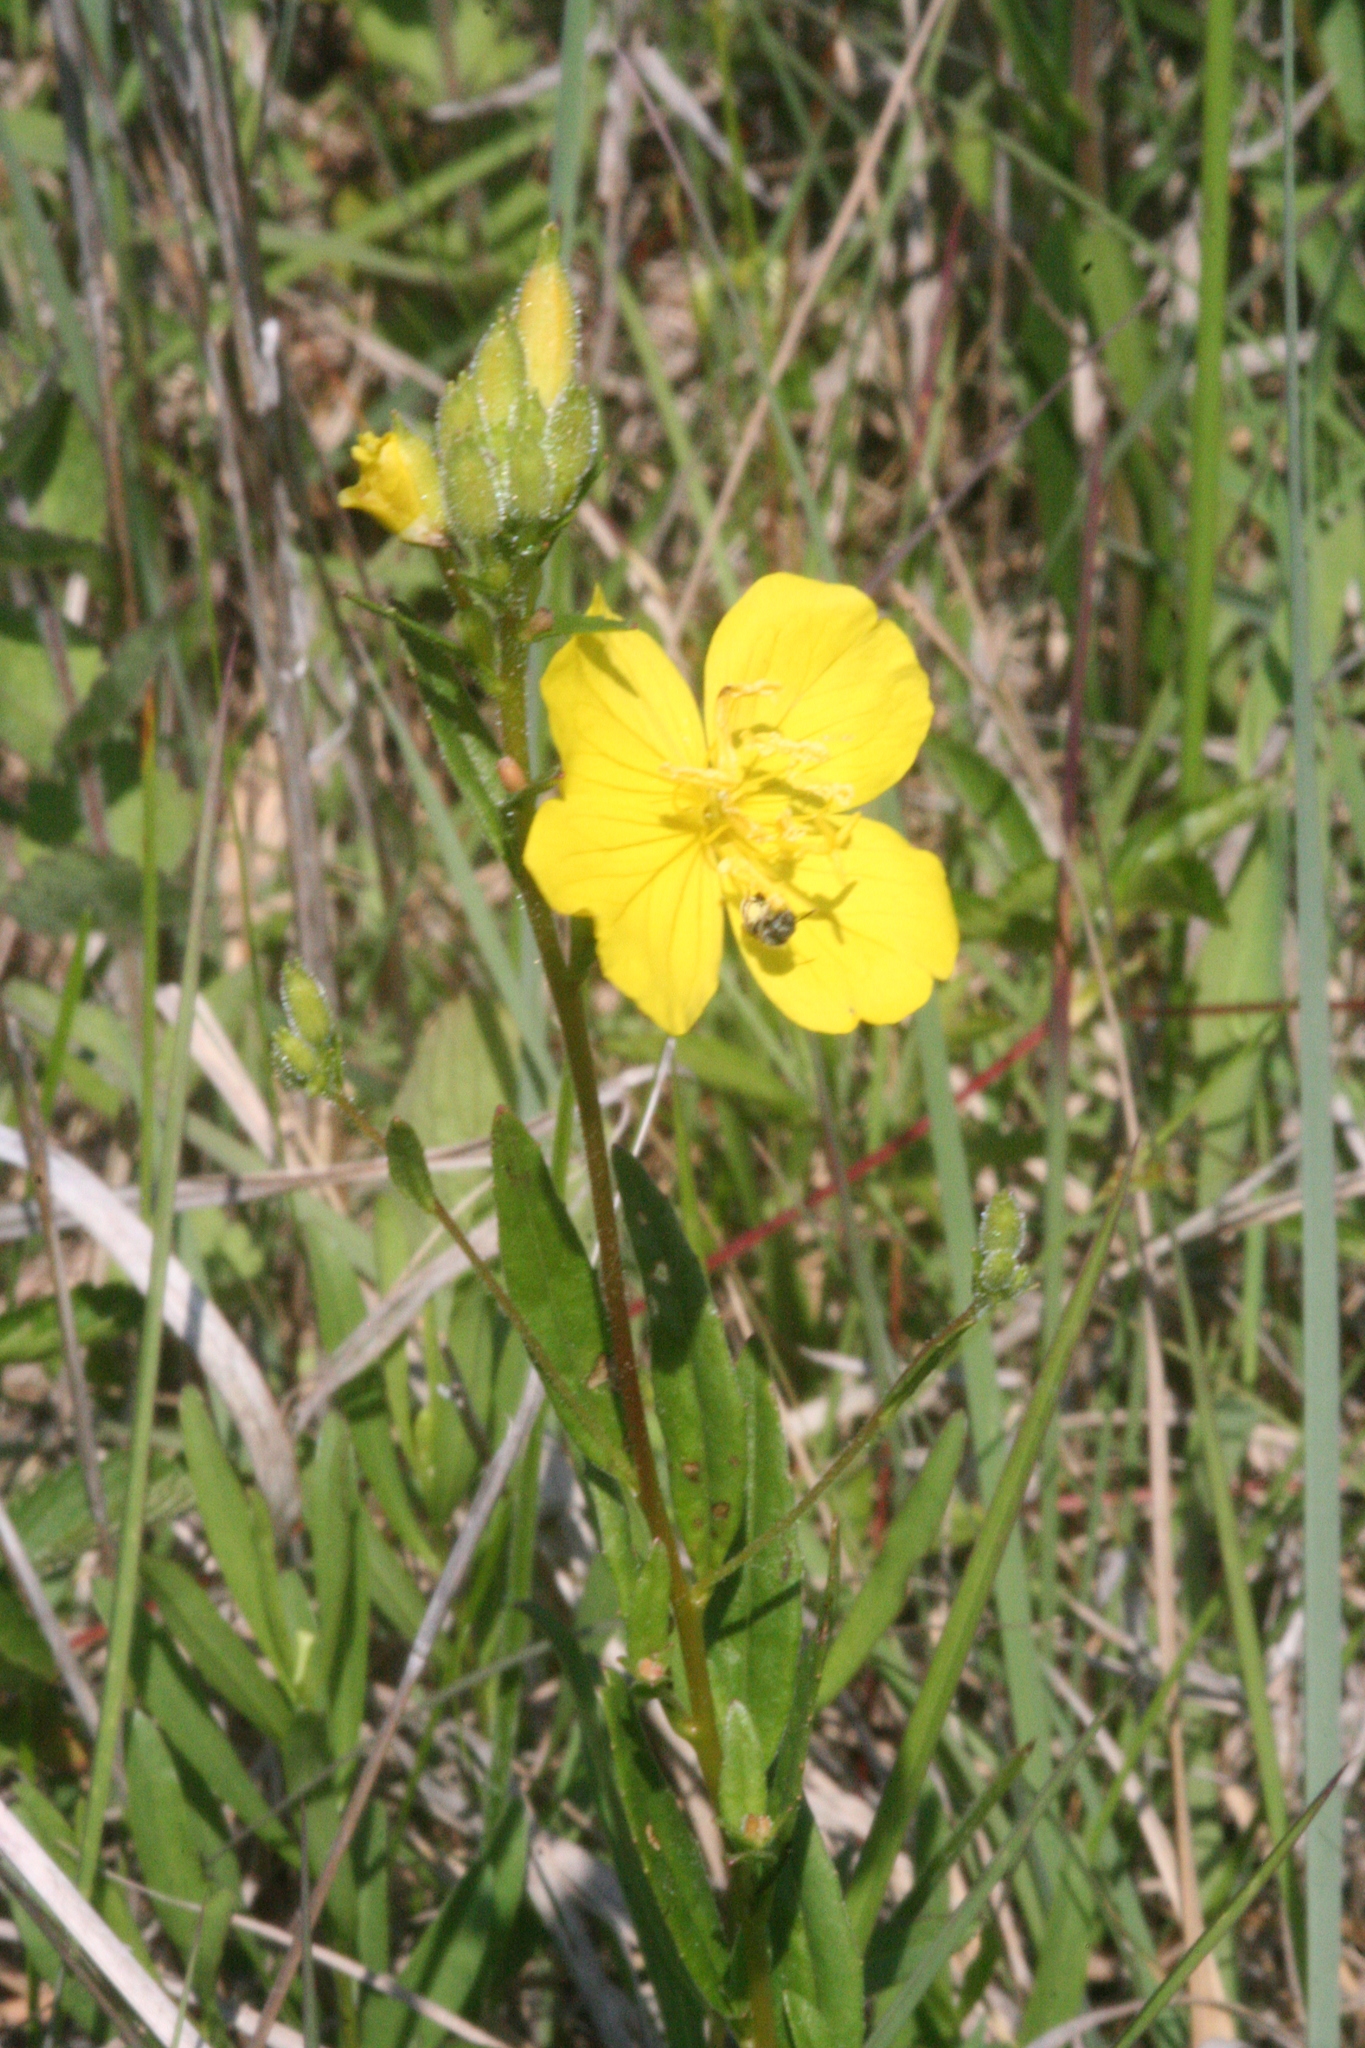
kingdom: Plantae
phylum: Tracheophyta
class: Magnoliopsida
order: Myrtales
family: Onagraceae
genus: Oenothera
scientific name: Oenothera tetragona
